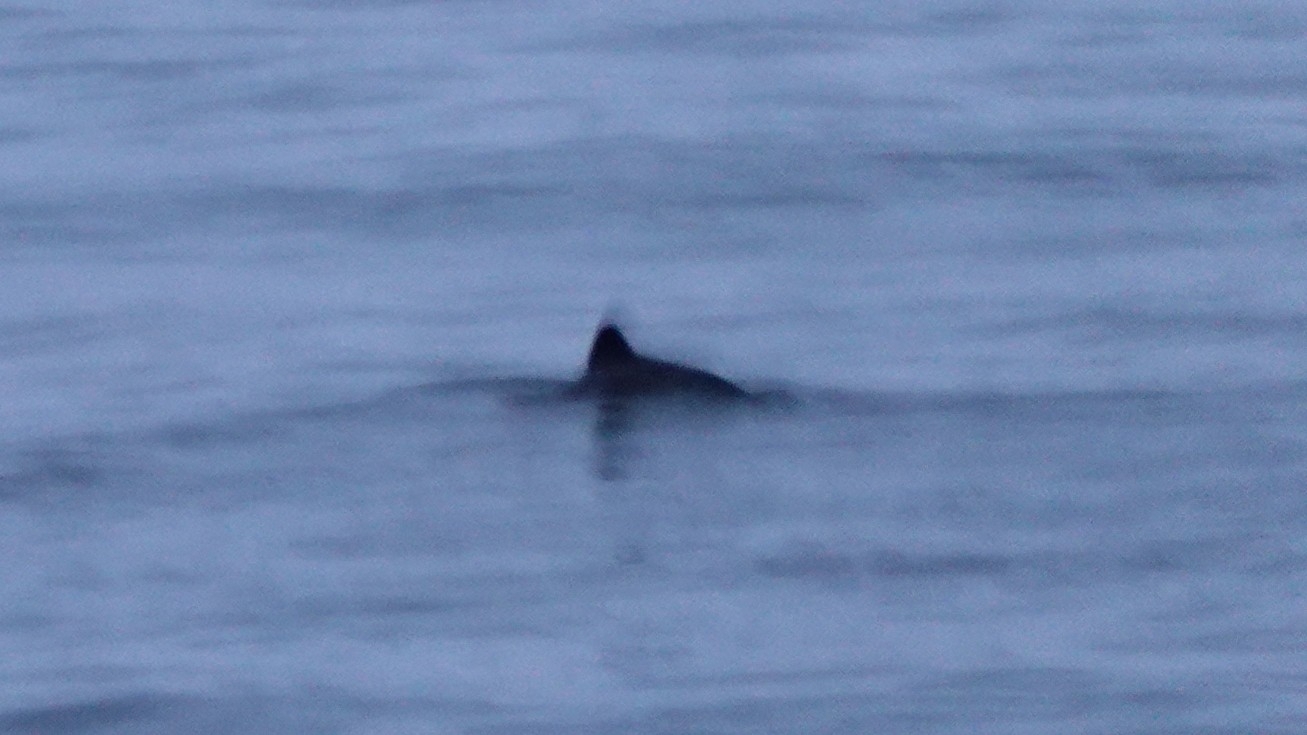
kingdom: Animalia
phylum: Chordata
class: Mammalia
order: Cetacea
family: Phocoenidae
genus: Phocoena
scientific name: Phocoena phocoena
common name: Harbor porpoise
